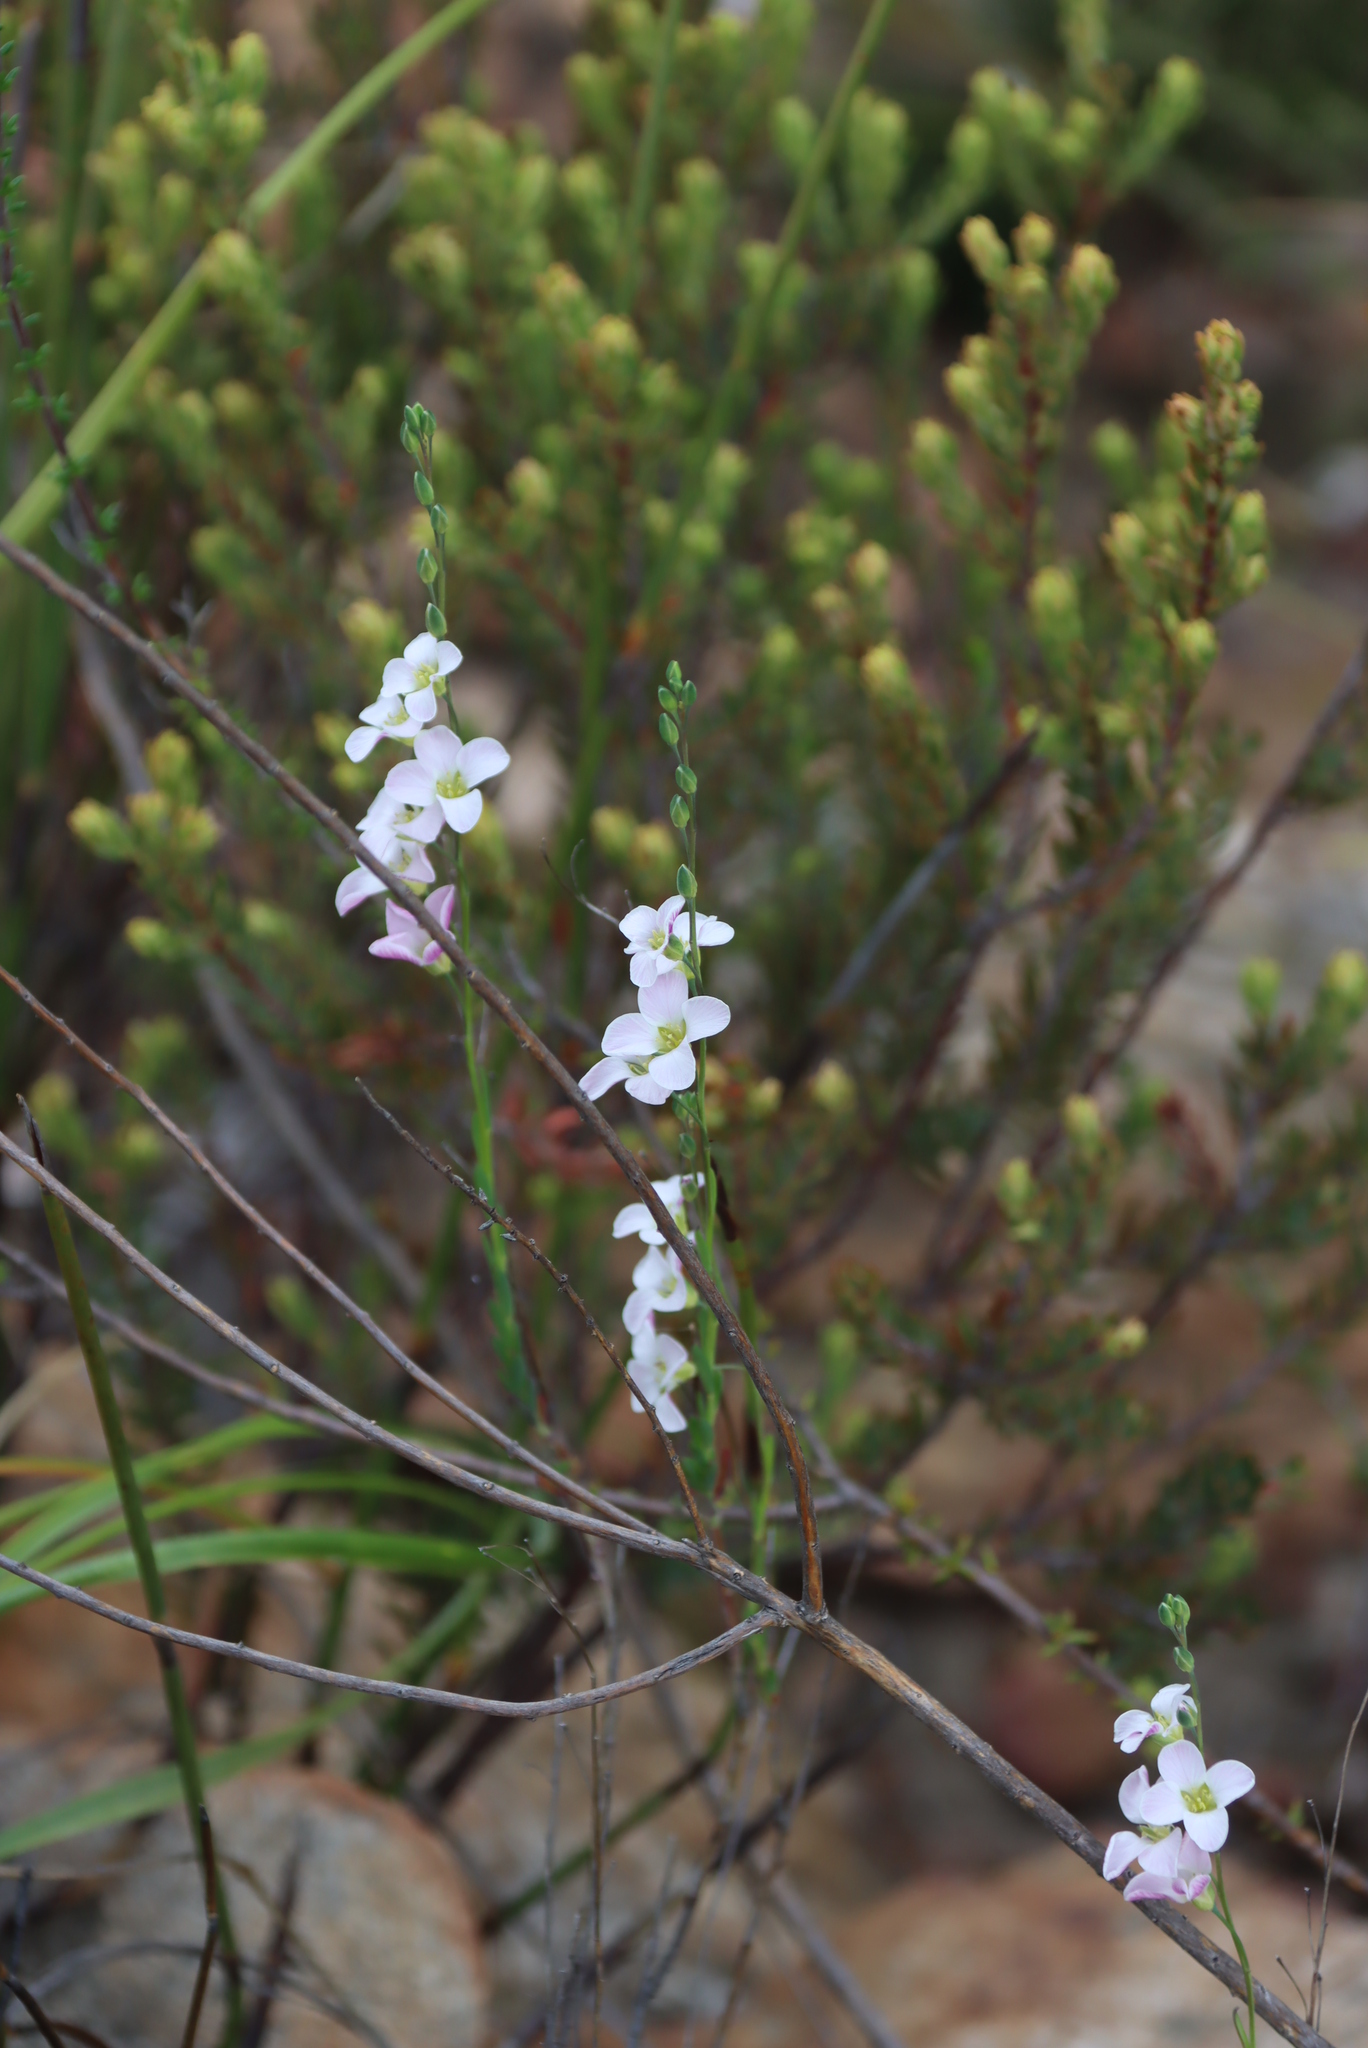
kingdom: Plantae
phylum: Tracheophyta
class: Magnoliopsida
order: Brassicales
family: Brassicaceae
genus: Heliophila
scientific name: Heliophila glauca
